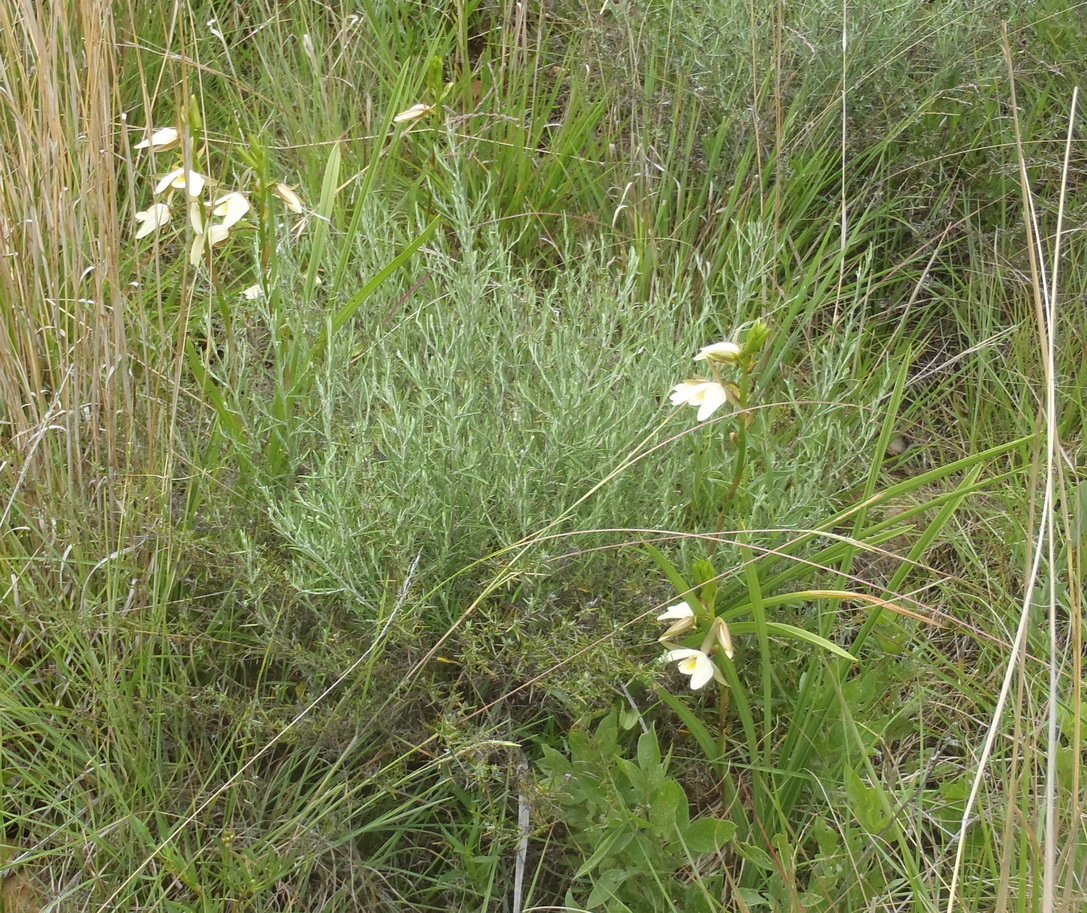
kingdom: Plantae
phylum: Tracheophyta
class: Liliopsida
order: Asparagales
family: Orchidaceae
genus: Eulophia
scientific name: Eulophia ovalis
